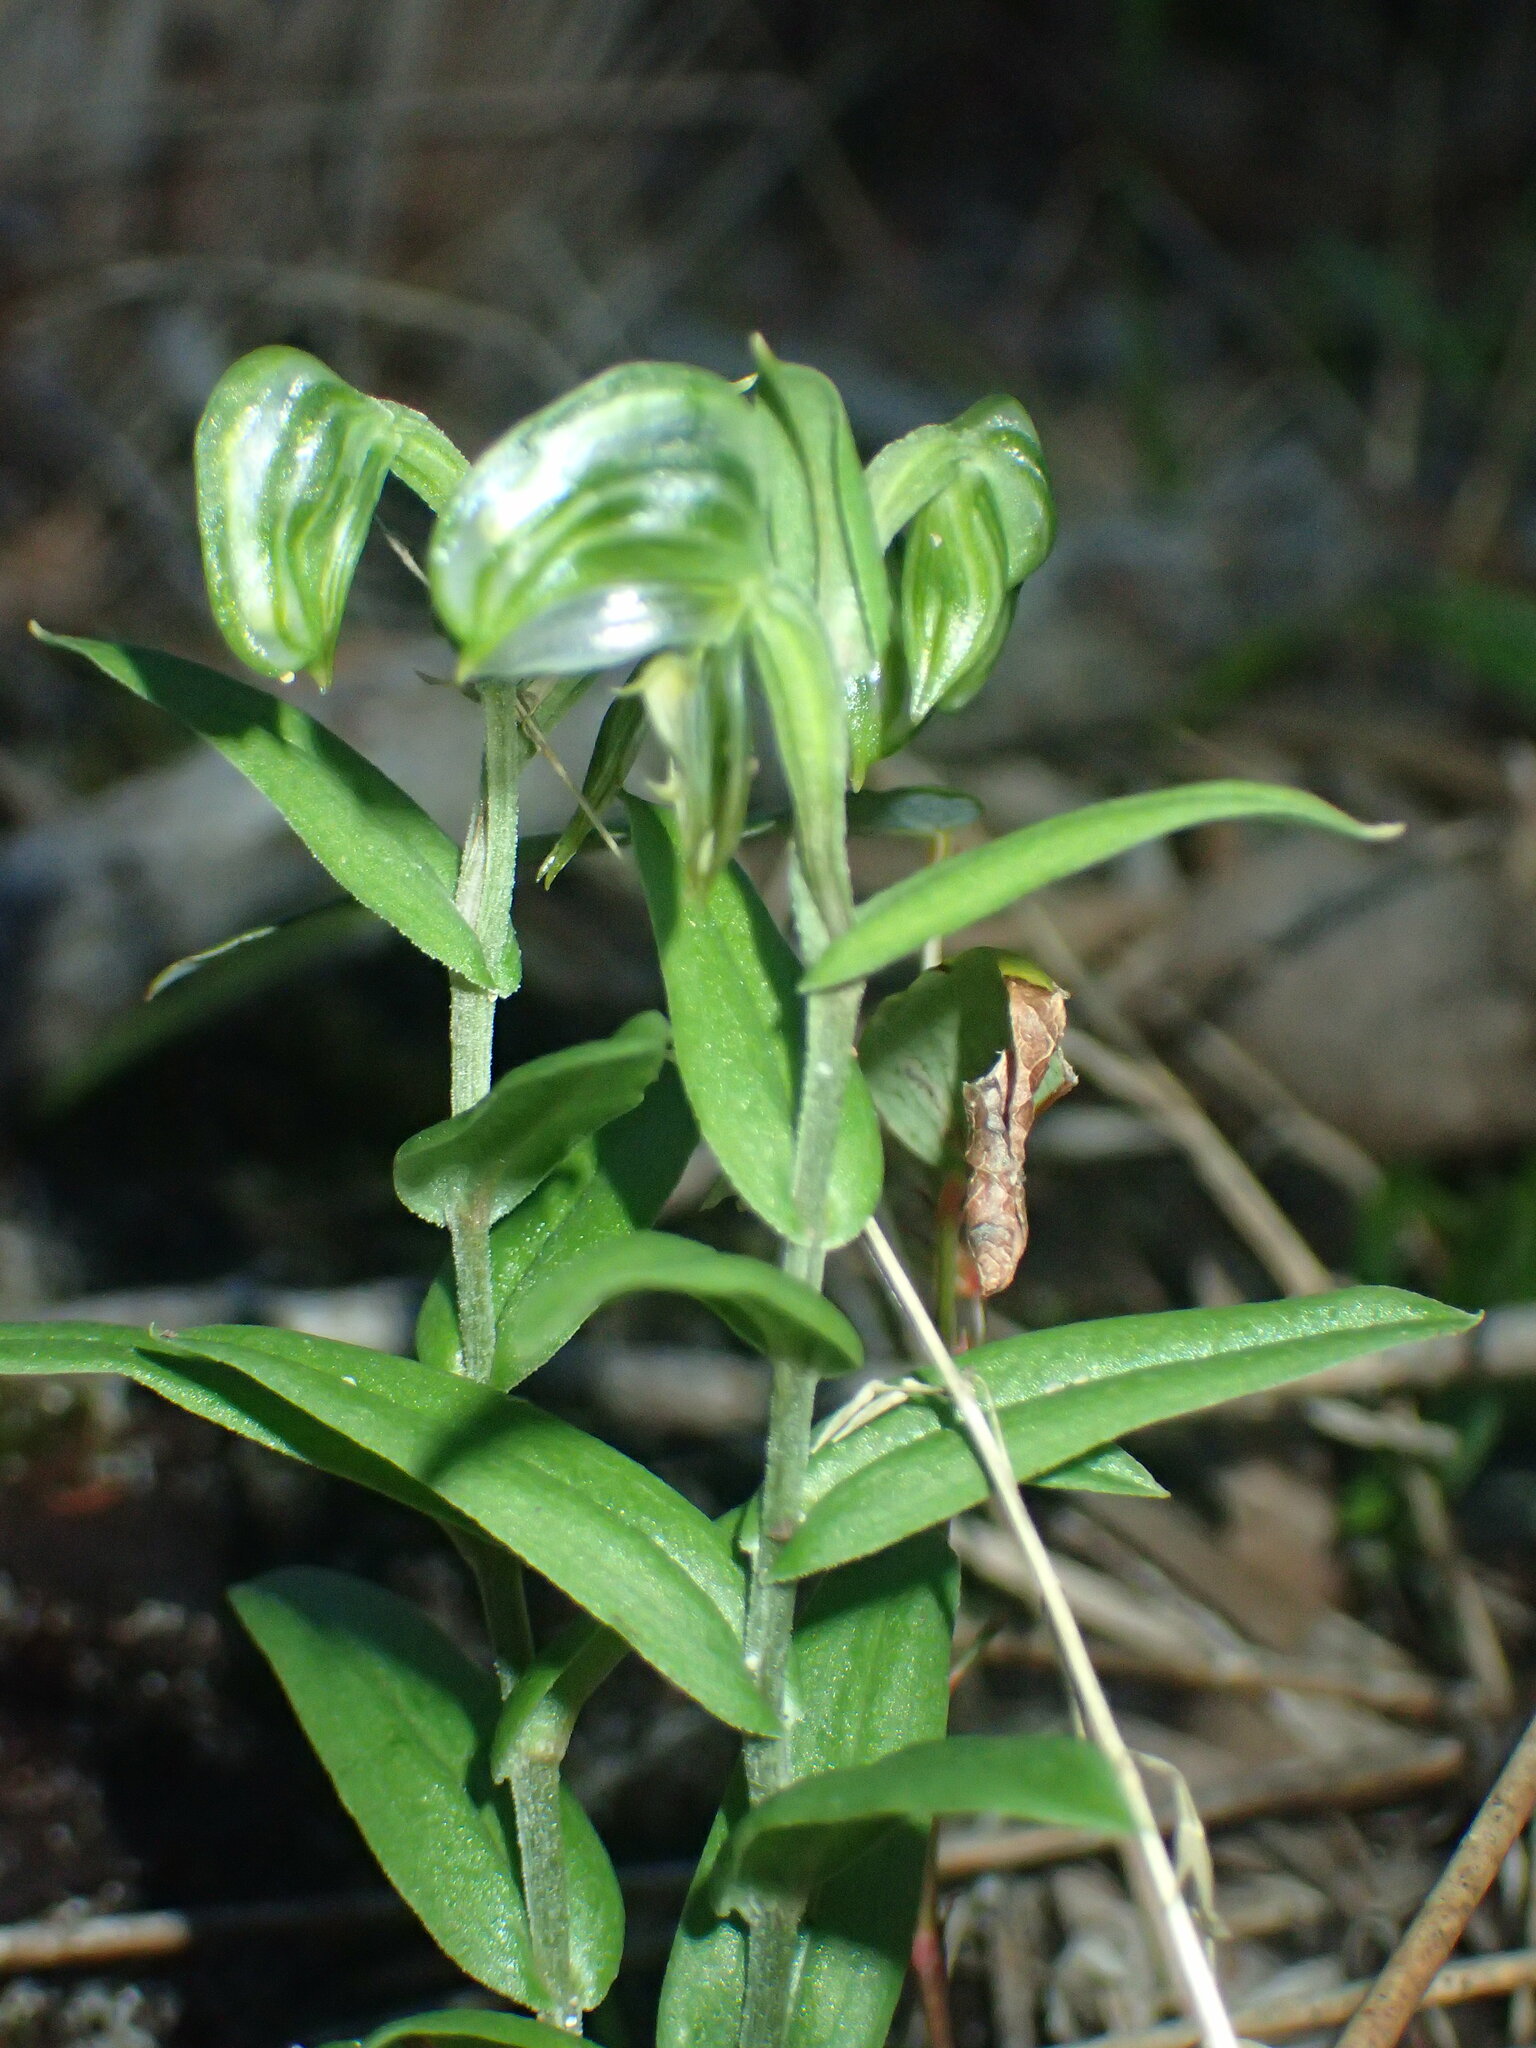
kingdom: Plantae
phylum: Tracheophyta
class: Liliopsida
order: Asparagales
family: Orchidaceae
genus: Pterostylis
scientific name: Pterostylis orbiculata
